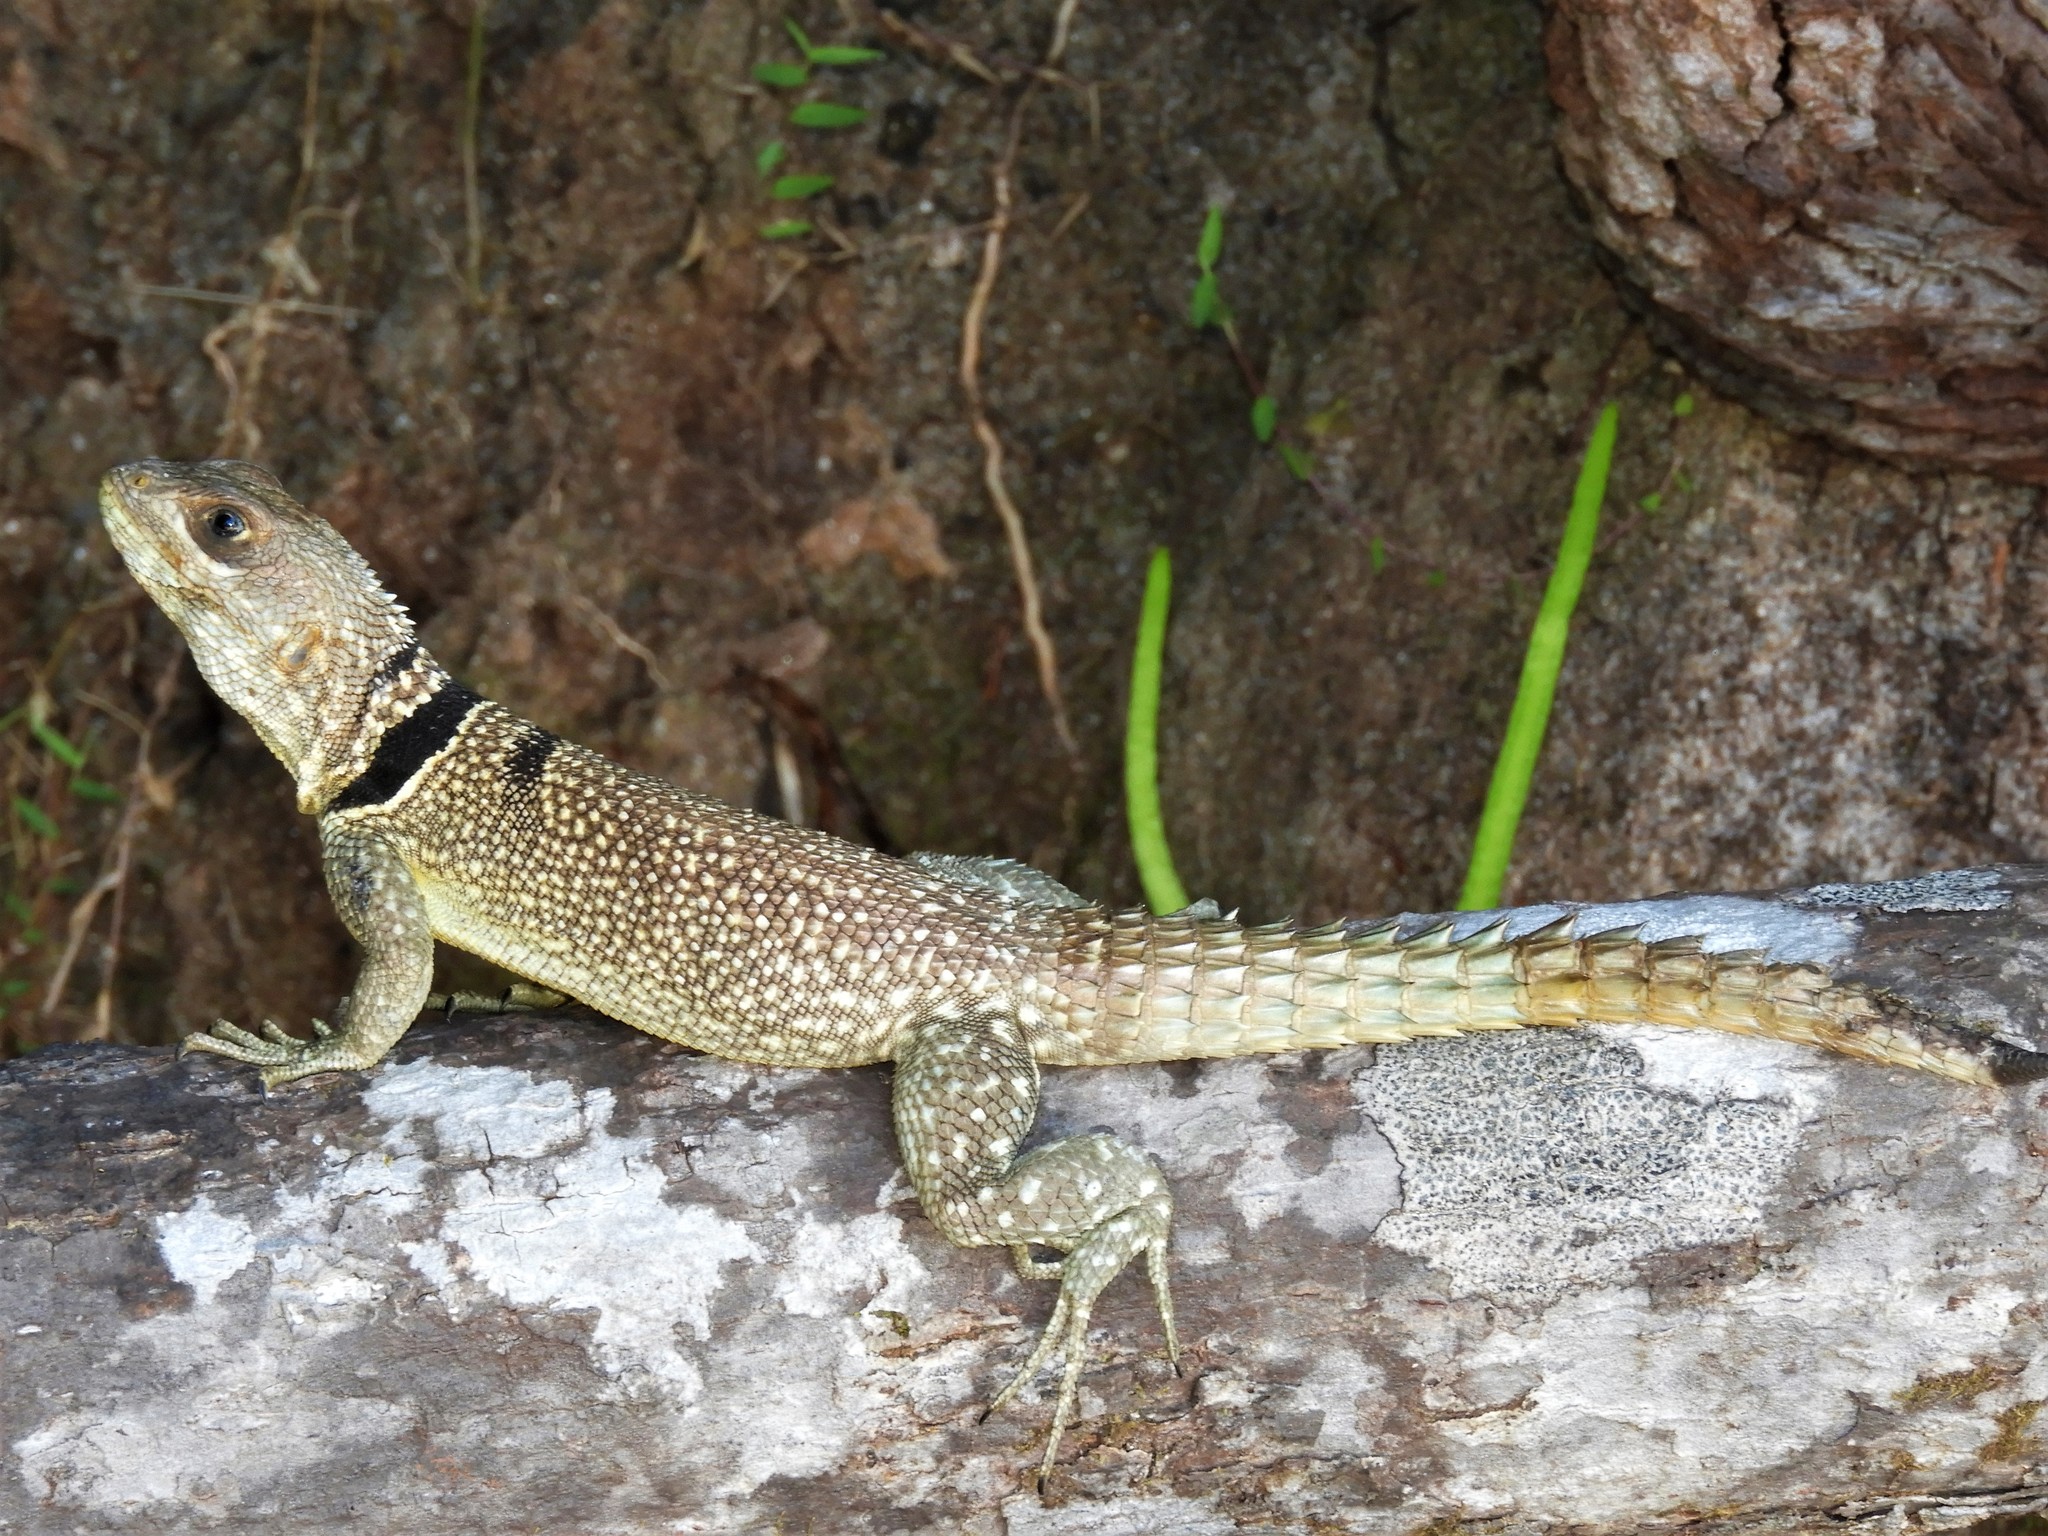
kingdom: Animalia
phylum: Chordata
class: Squamata
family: Opluridae
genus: Oplurus
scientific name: Oplurus cuvieri
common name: Cuvier's madagascar swift
